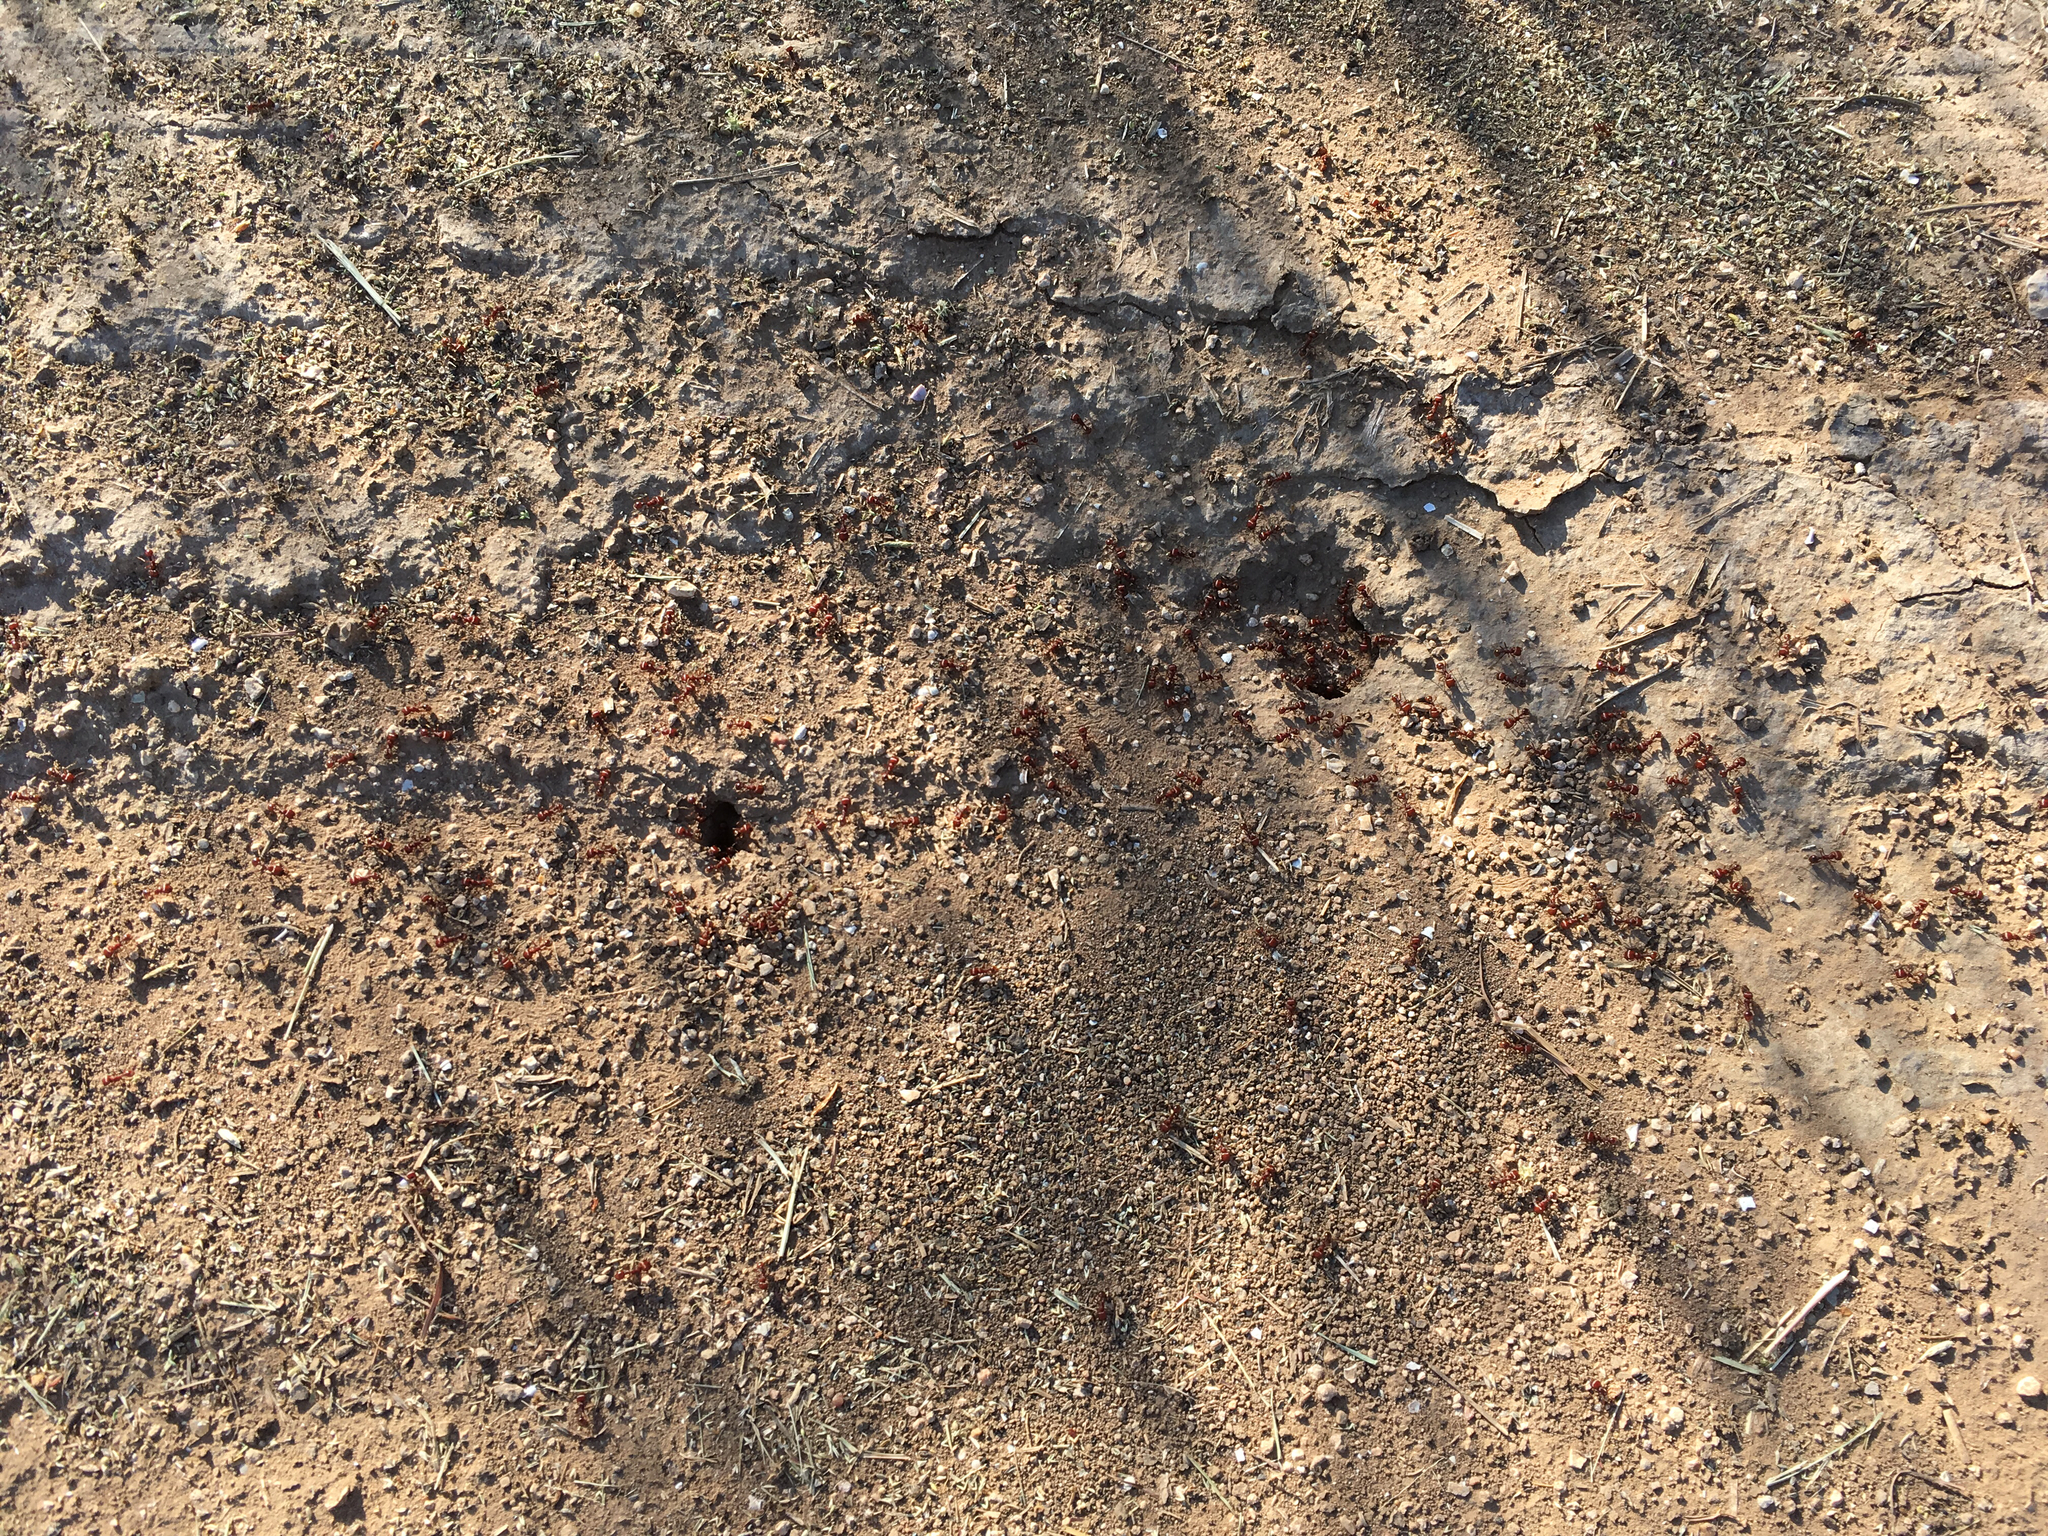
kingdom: Animalia
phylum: Arthropoda
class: Insecta
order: Hymenoptera
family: Formicidae
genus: Pogonomyrmex
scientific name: Pogonomyrmex barbatus
